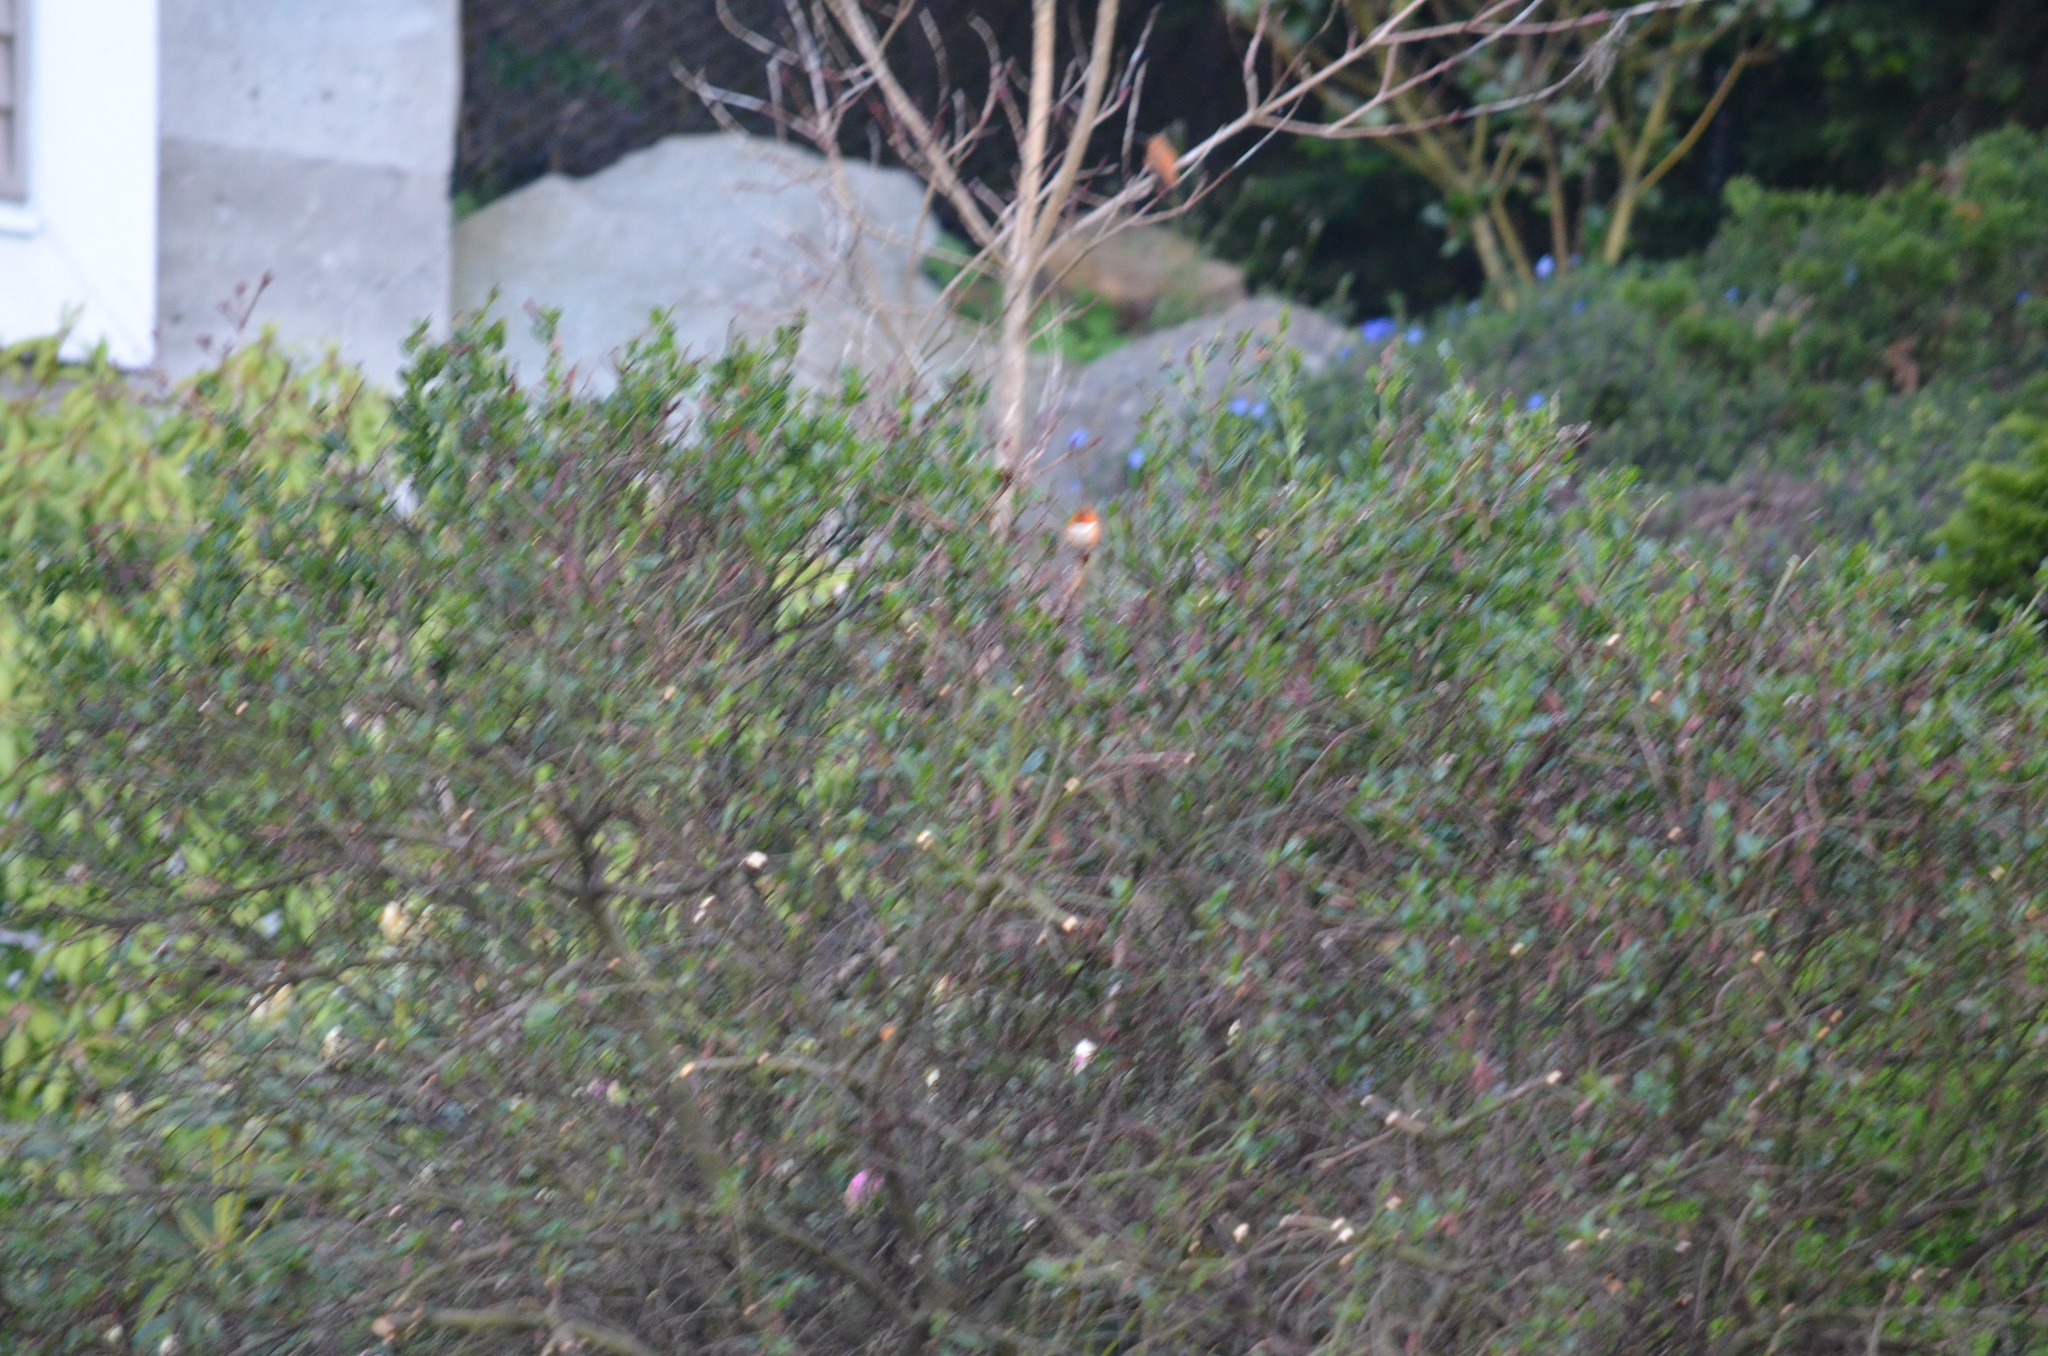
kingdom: Animalia
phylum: Chordata
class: Aves
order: Apodiformes
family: Trochilidae
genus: Selasphorus
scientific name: Selasphorus rufus
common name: Rufous hummingbird
